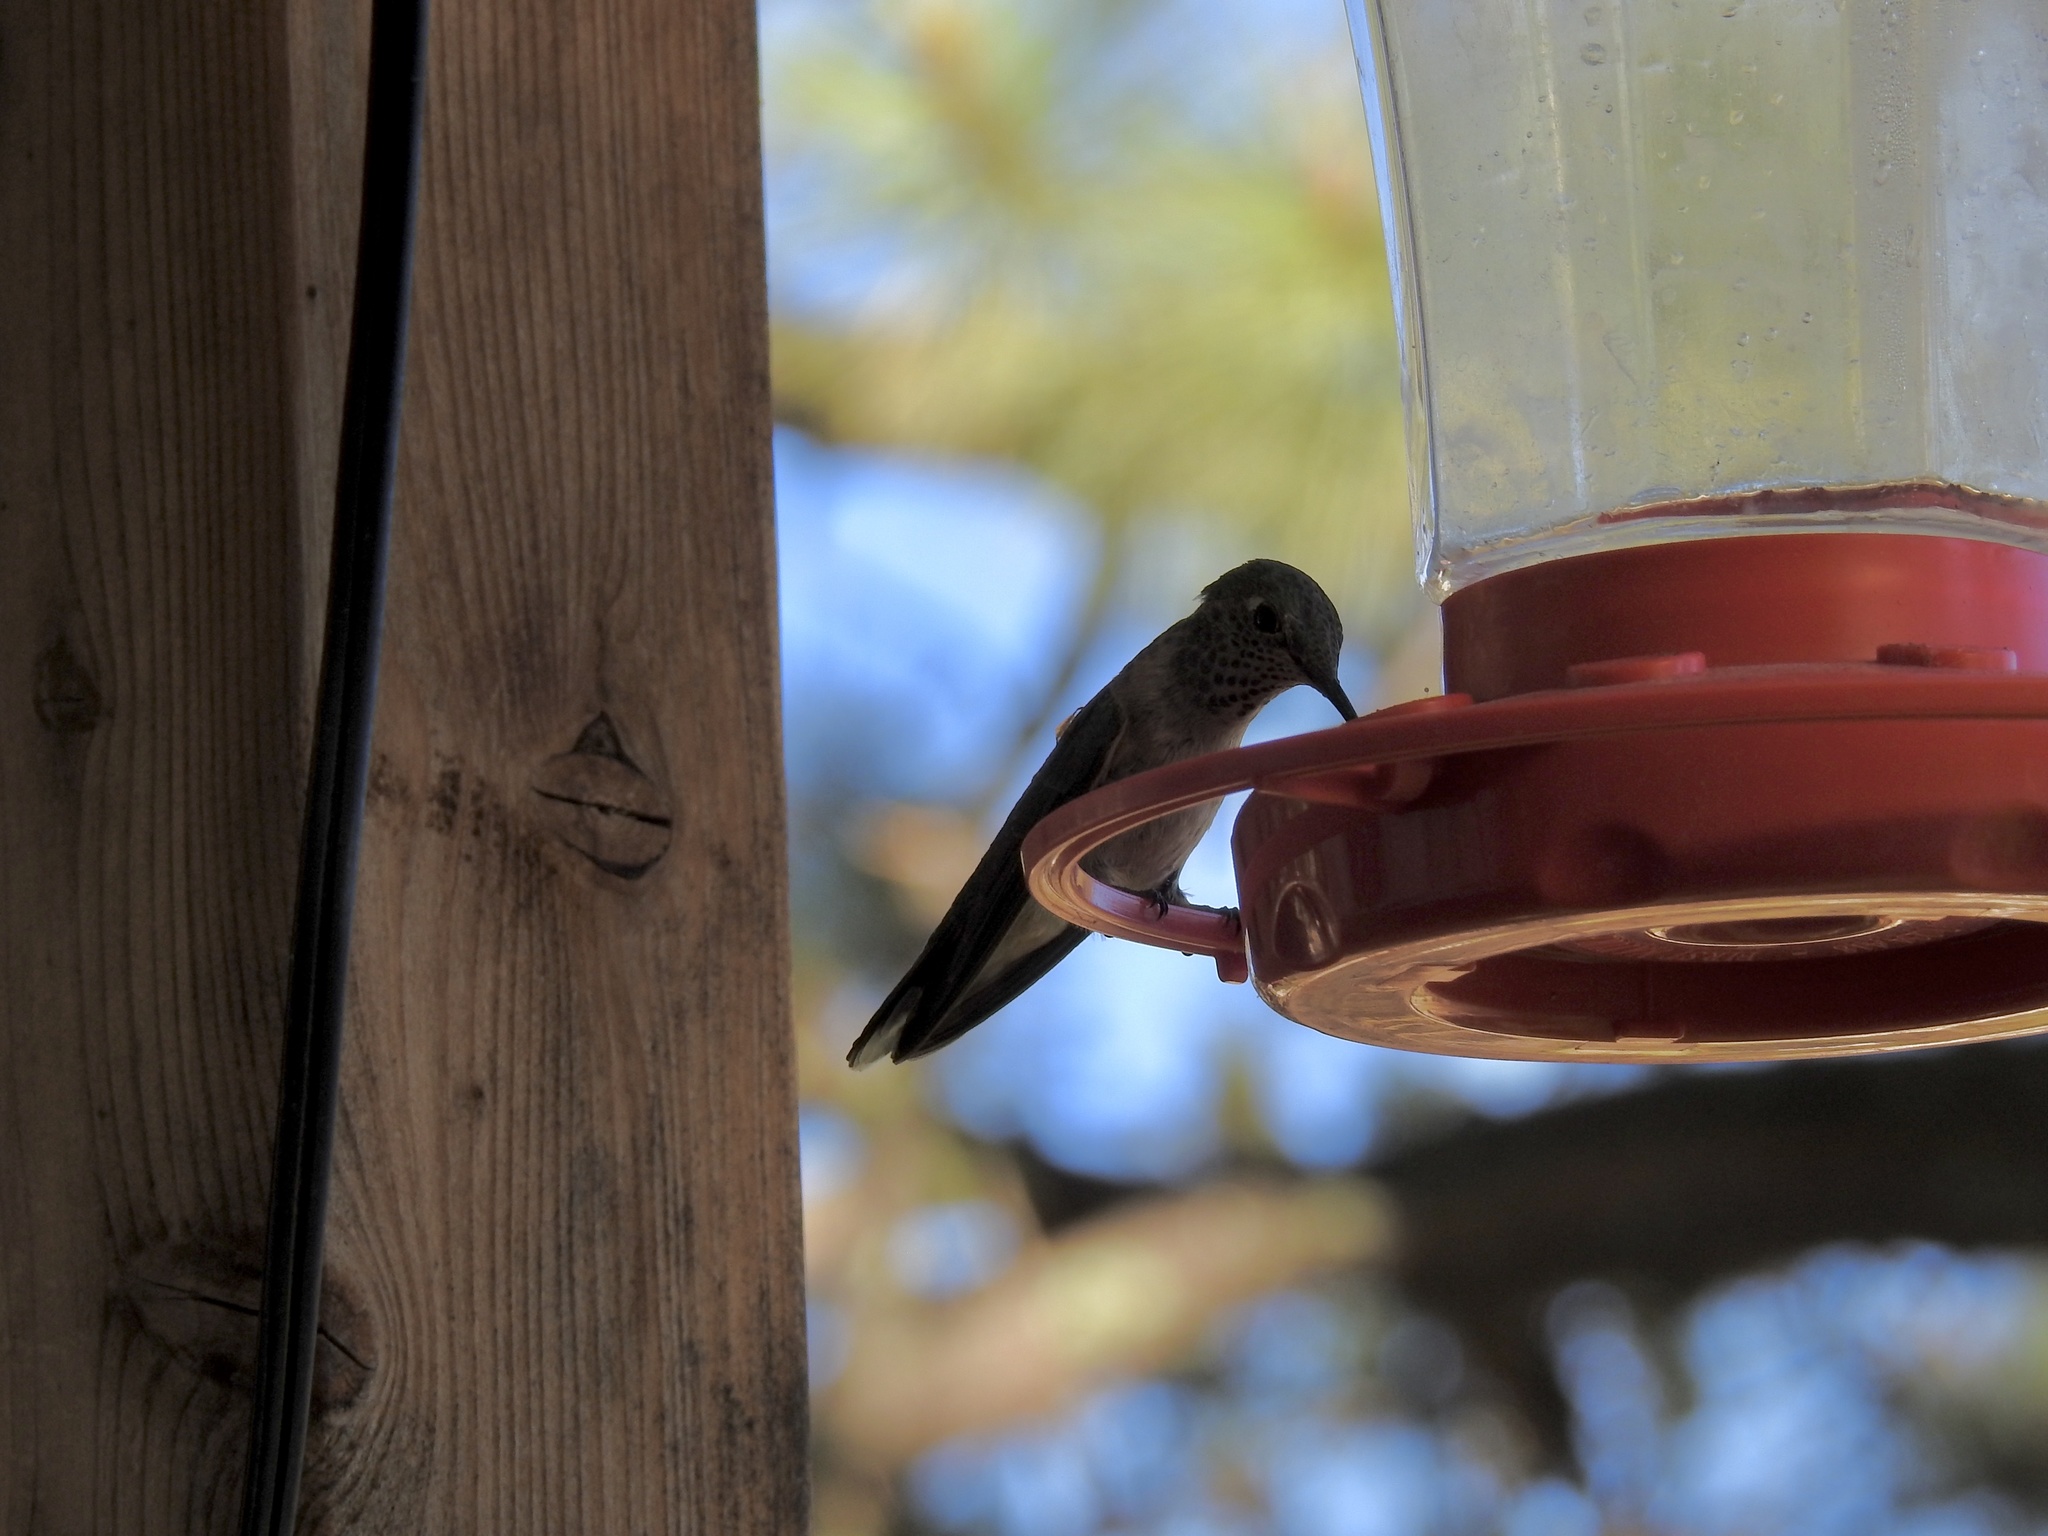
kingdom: Animalia
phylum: Chordata
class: Aves
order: Apodiformes
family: Trochilidae
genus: Selasphorus
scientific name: Selasphorus platycercus
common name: Broad-tailed hummingbird
